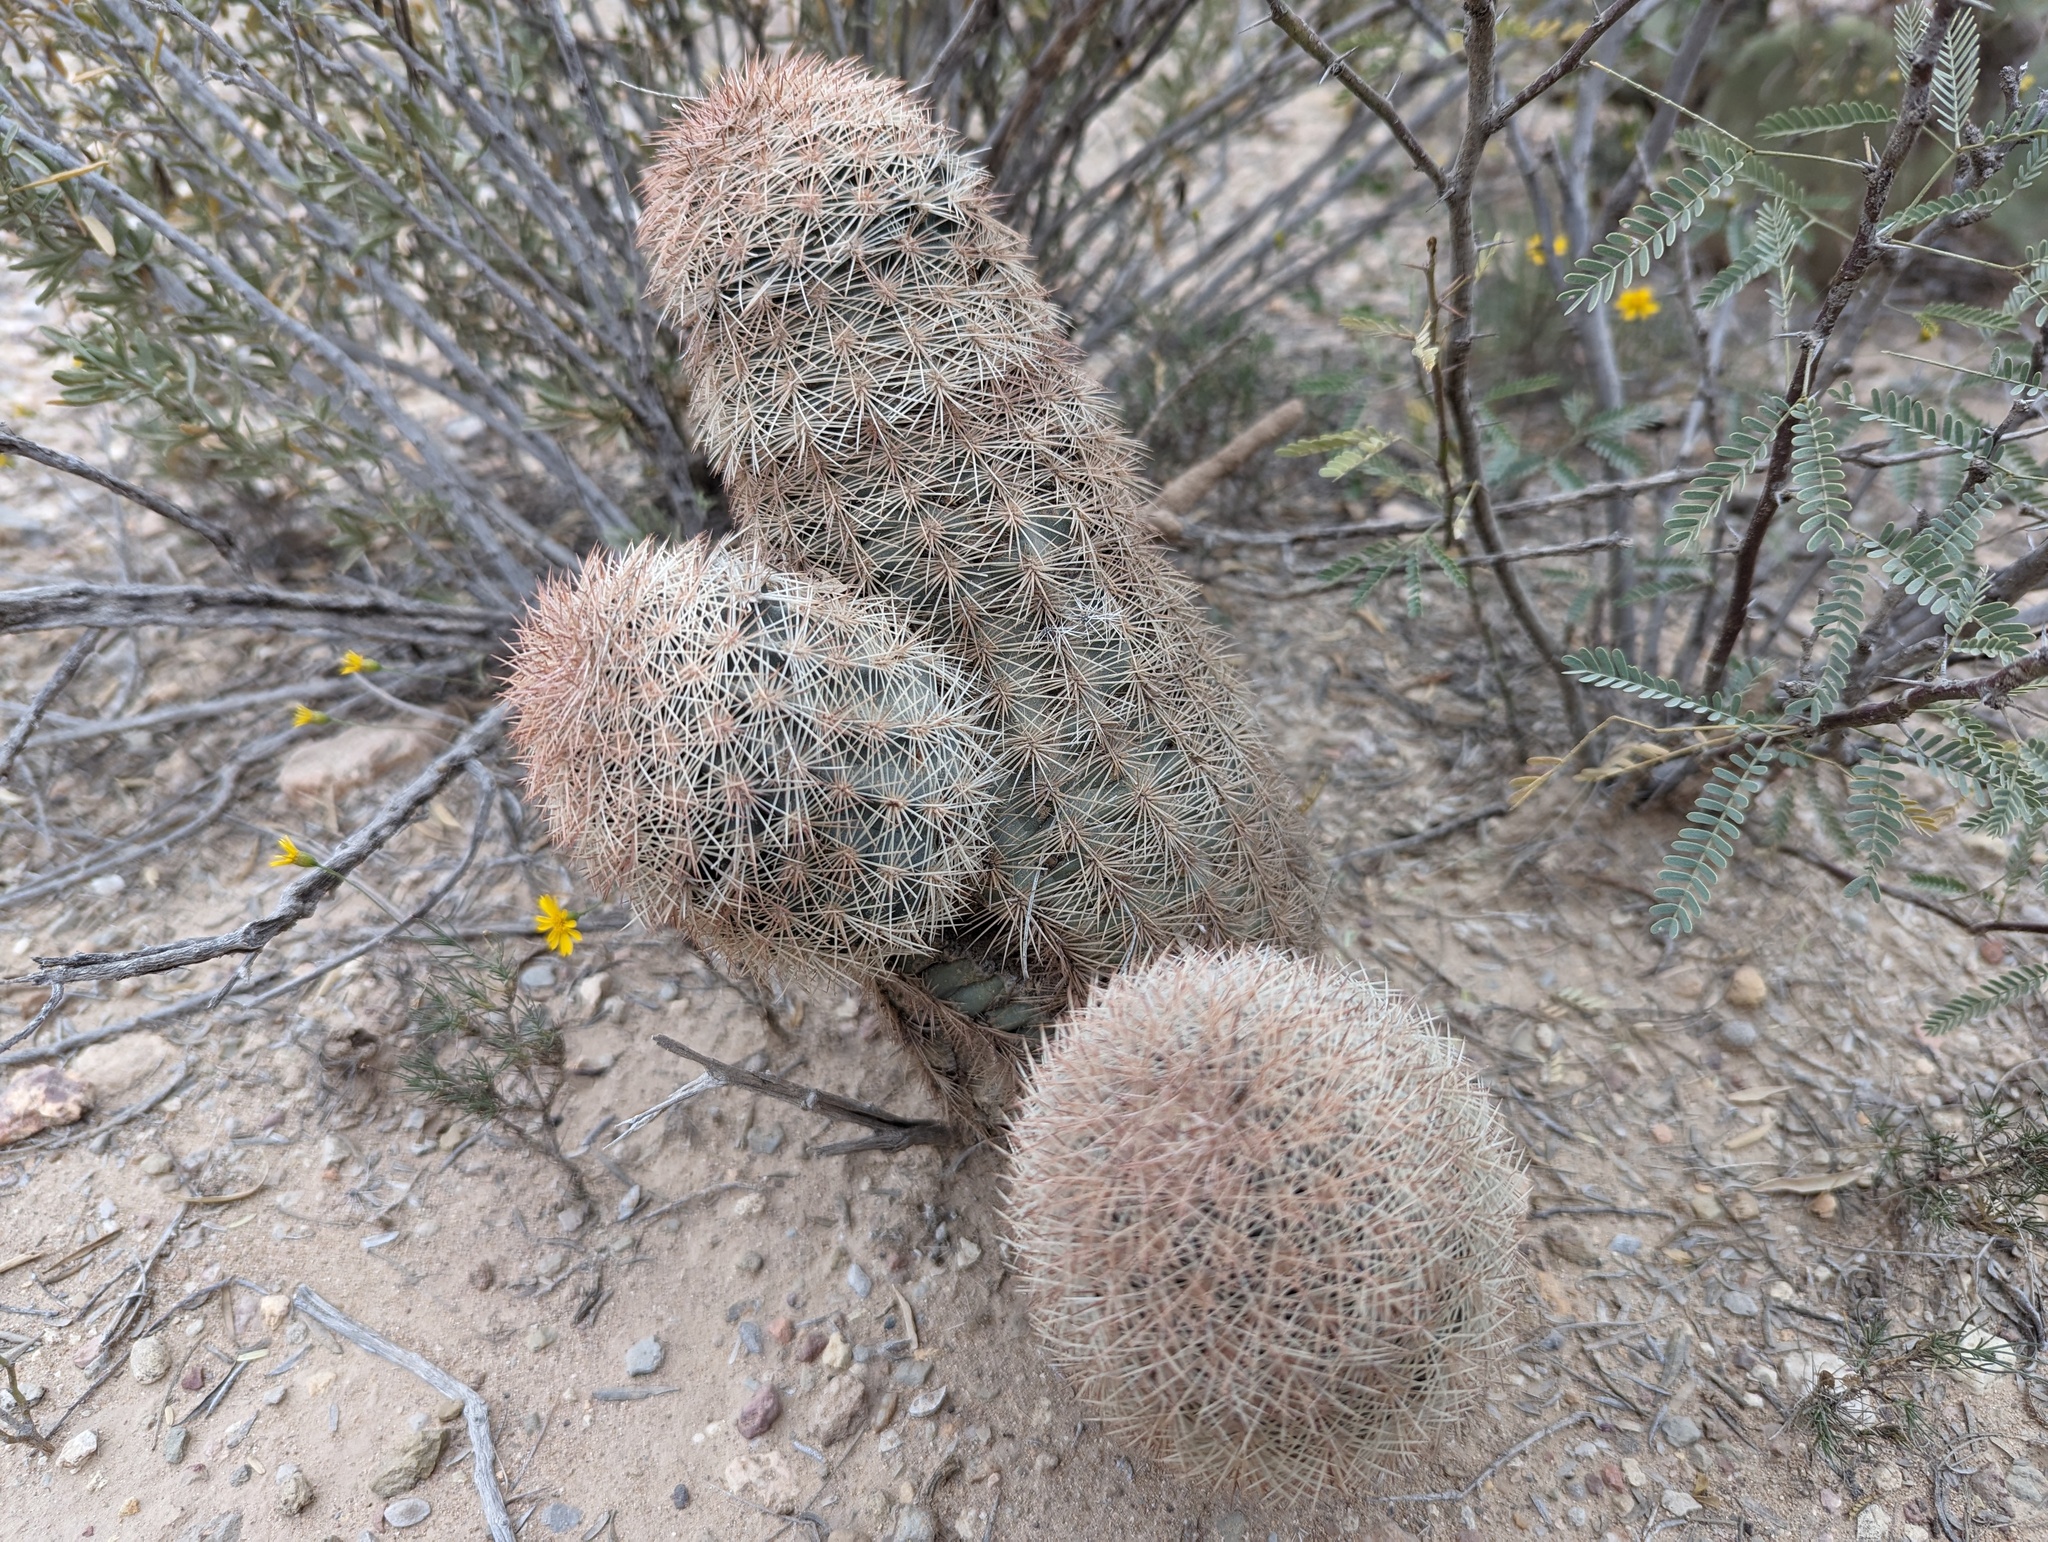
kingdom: Plantae
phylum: Tracheophyta
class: Magnoliopsida
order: Caryophyllales
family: Cactaceae
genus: Echinocereus
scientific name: Echinocereus dasyacanthus
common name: Spiny hedgehog cactus
